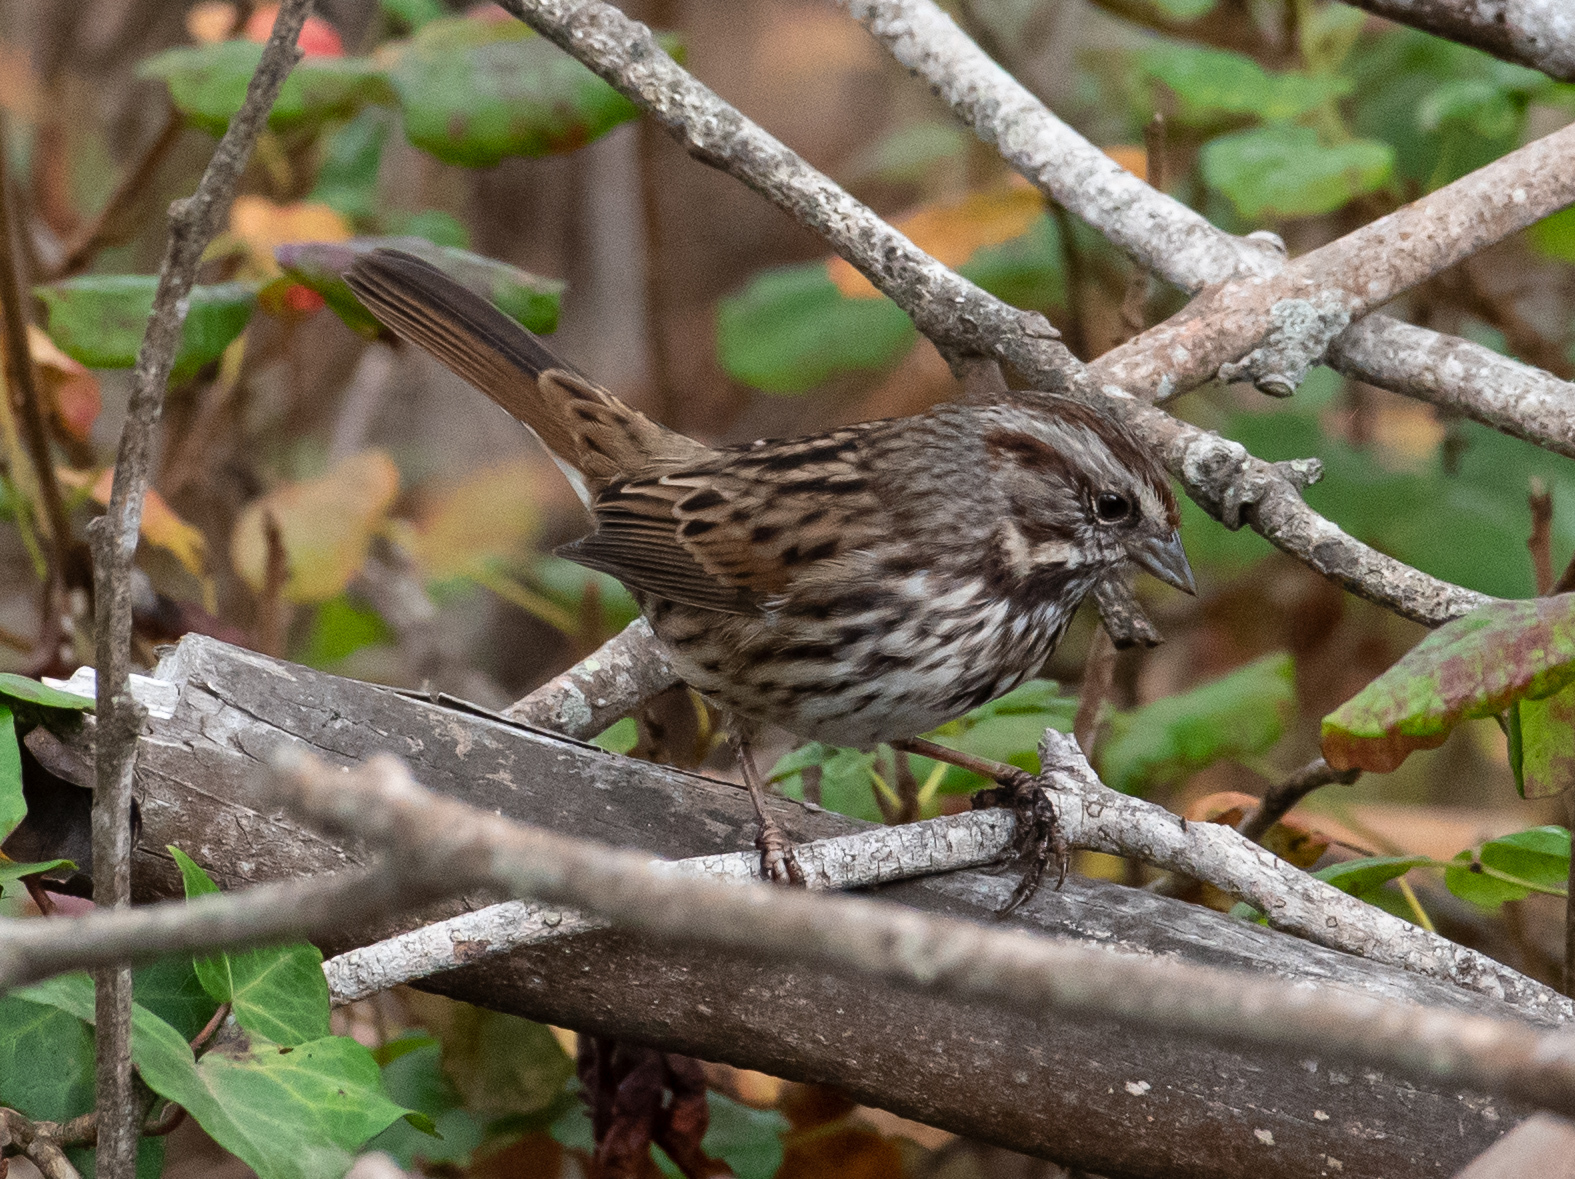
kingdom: Animalia
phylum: Chordata
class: Aves
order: Passeriformes
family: Passerellidae
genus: Melospiza
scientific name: Melospiza melodia
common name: Song sparrow
